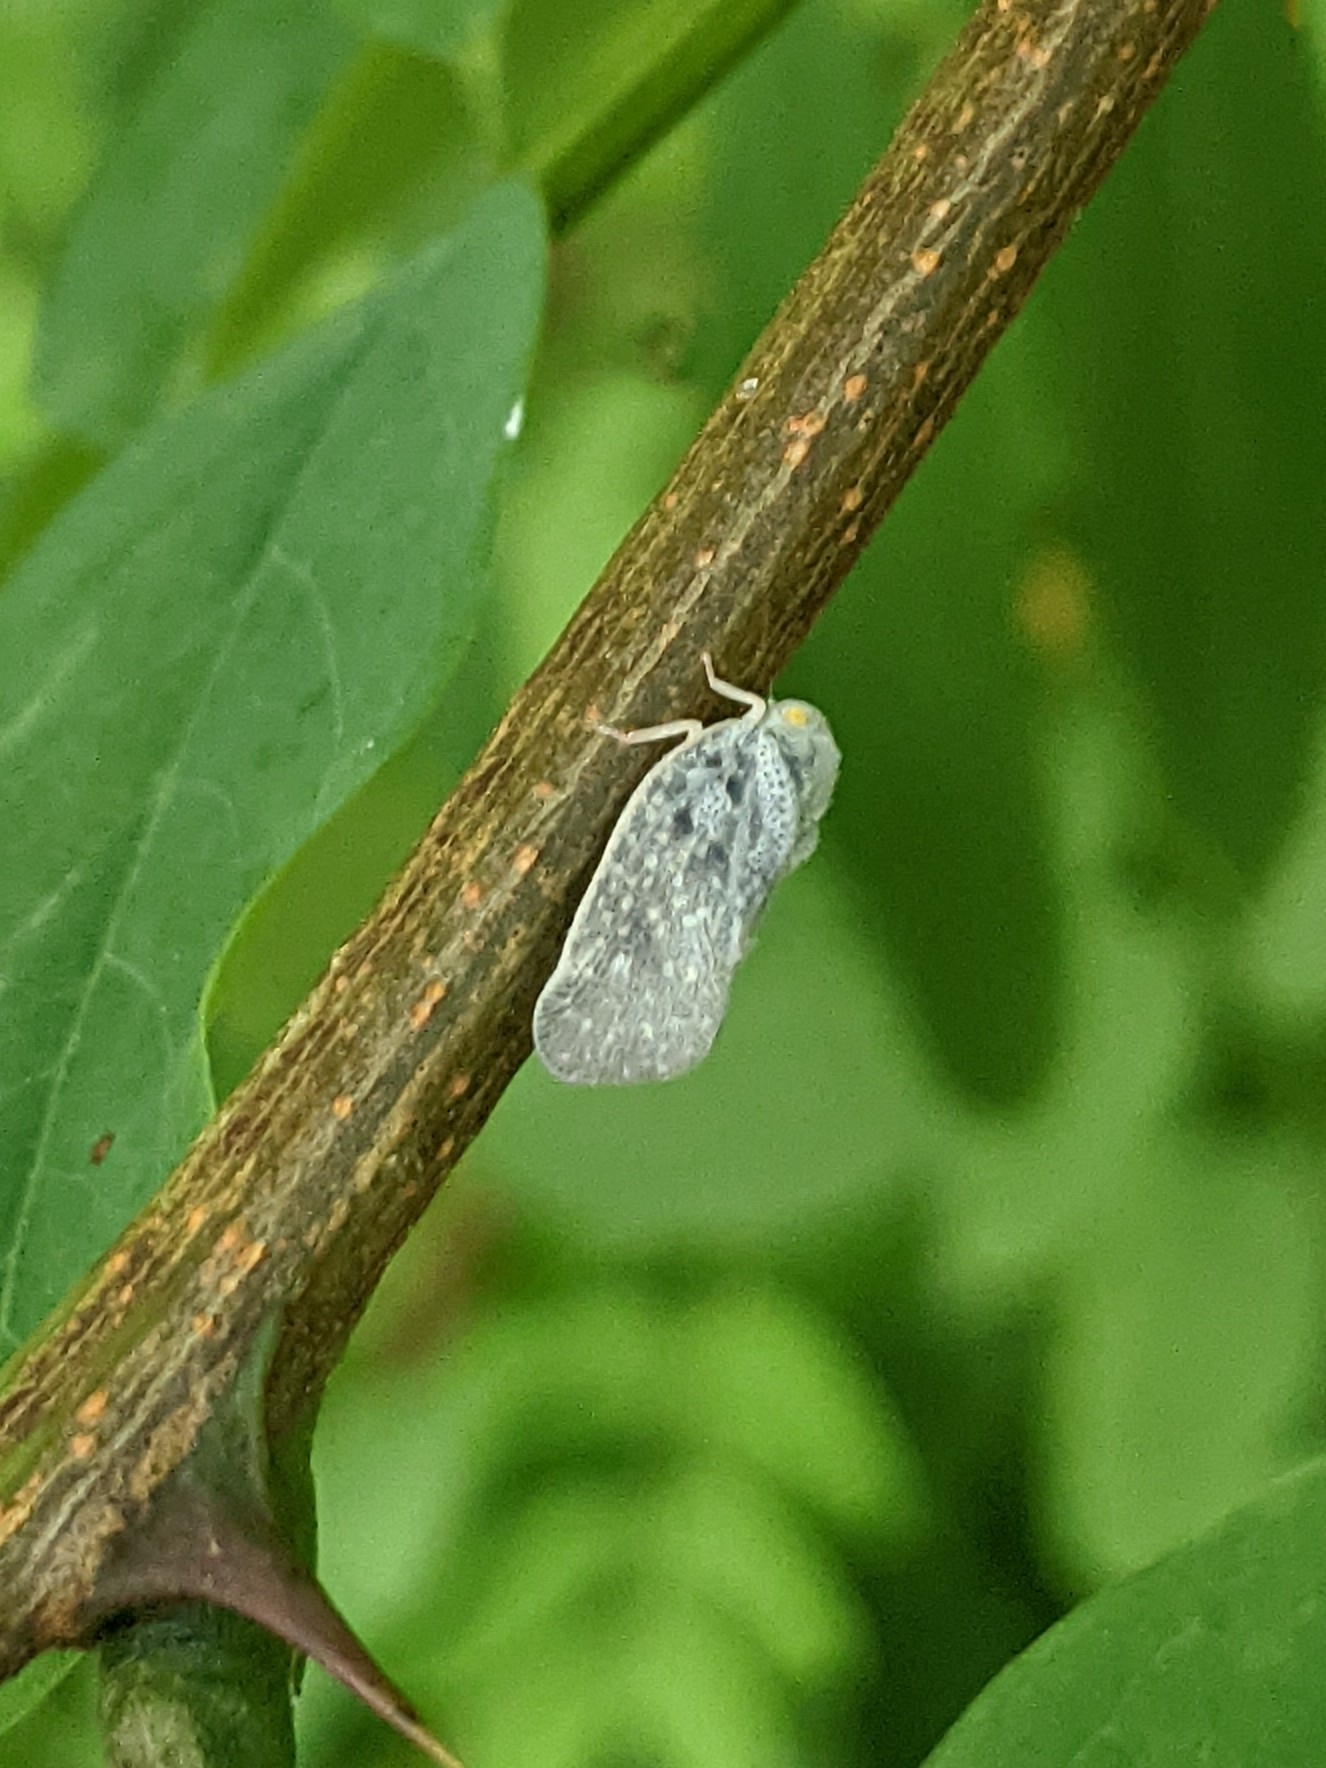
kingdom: Animalia
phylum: Arthropoda
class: Insecta
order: Hemiptera
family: Flatidae
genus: Metcalfa
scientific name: Metcalfa pruinosa
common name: Citrus flatid planthopper
